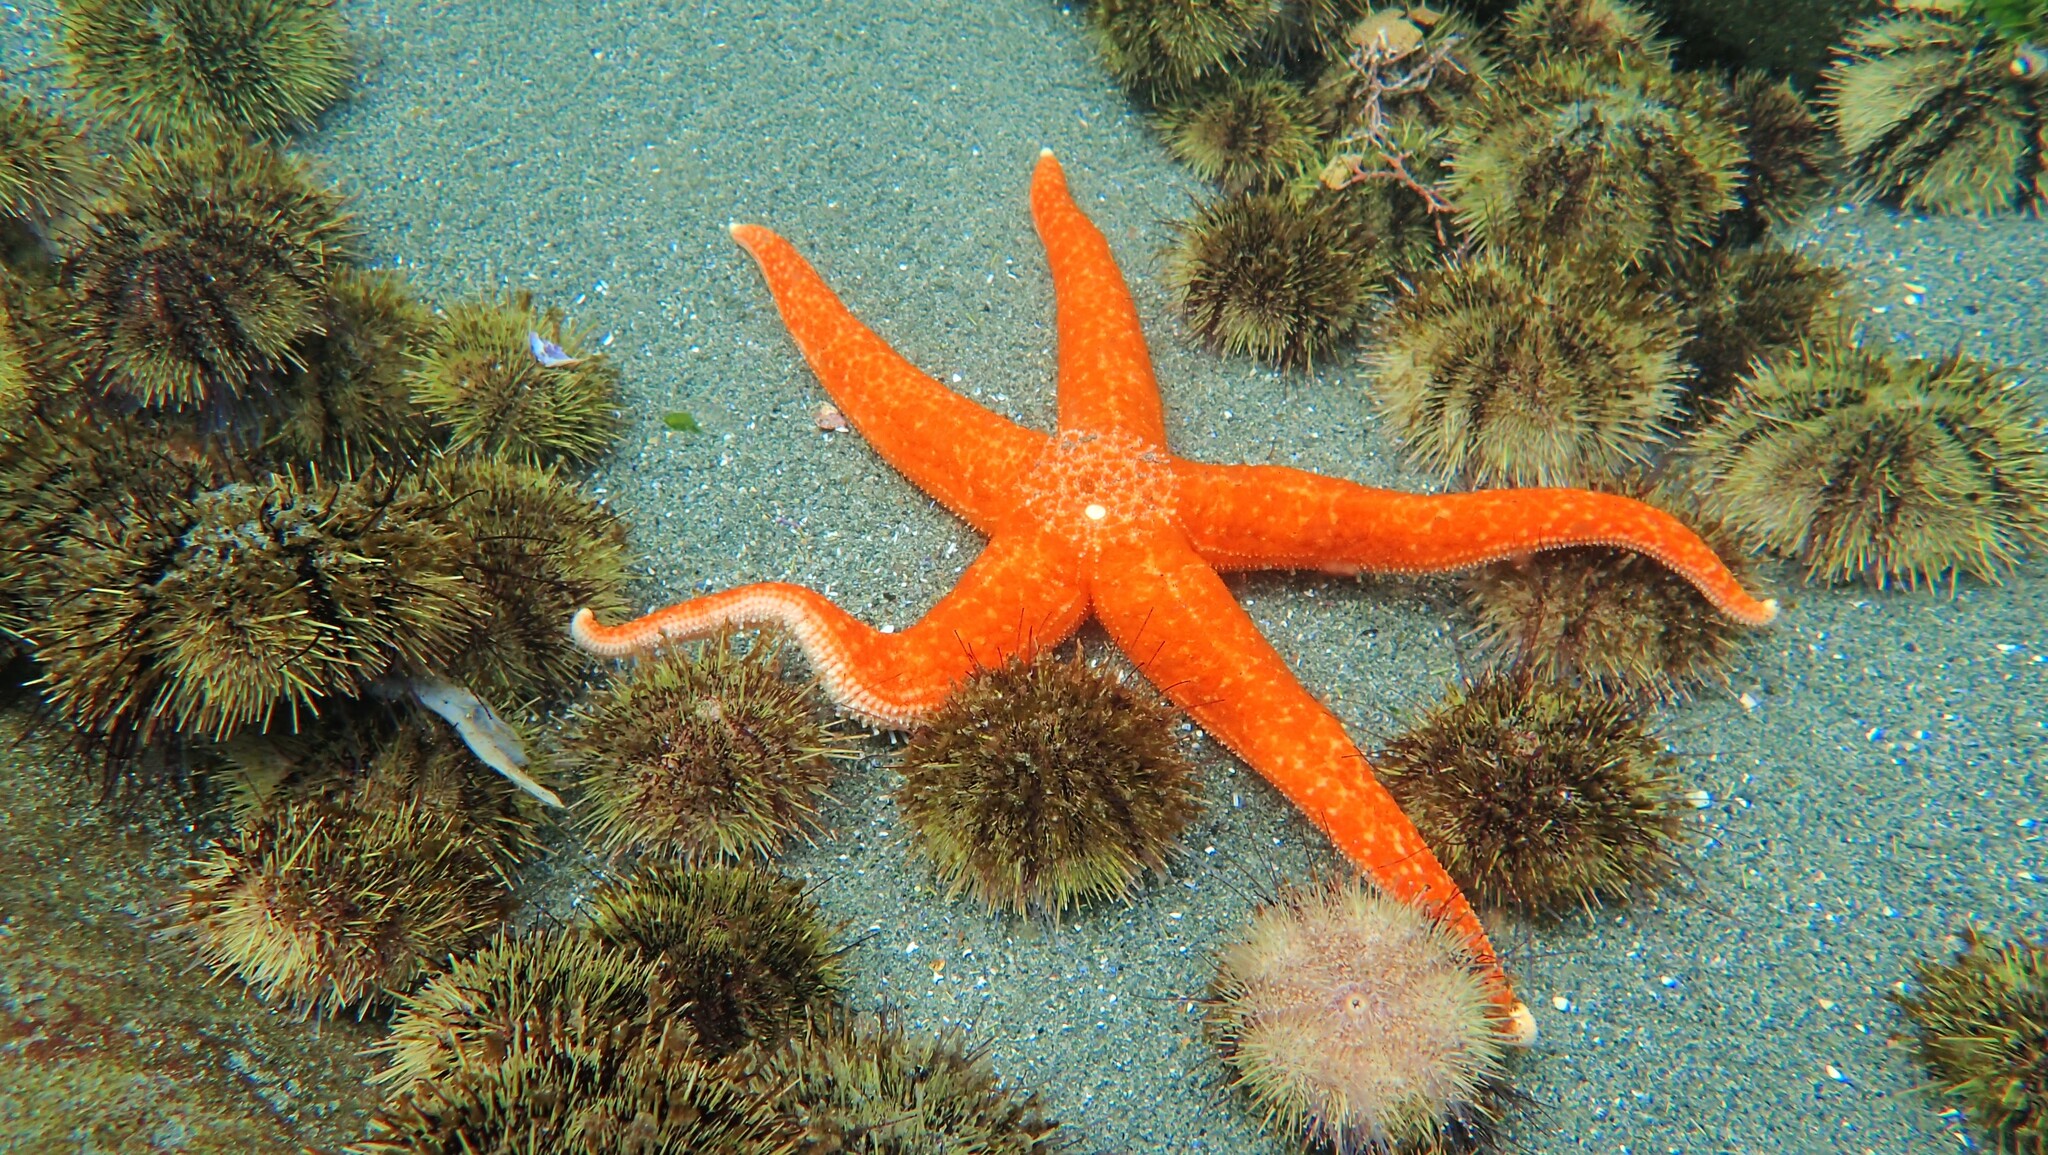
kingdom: Animalia
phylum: Echinodermata
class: Asteroidea
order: Forcipulatida
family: Asteriidae
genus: Evasterias
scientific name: Evasterias troschelii
